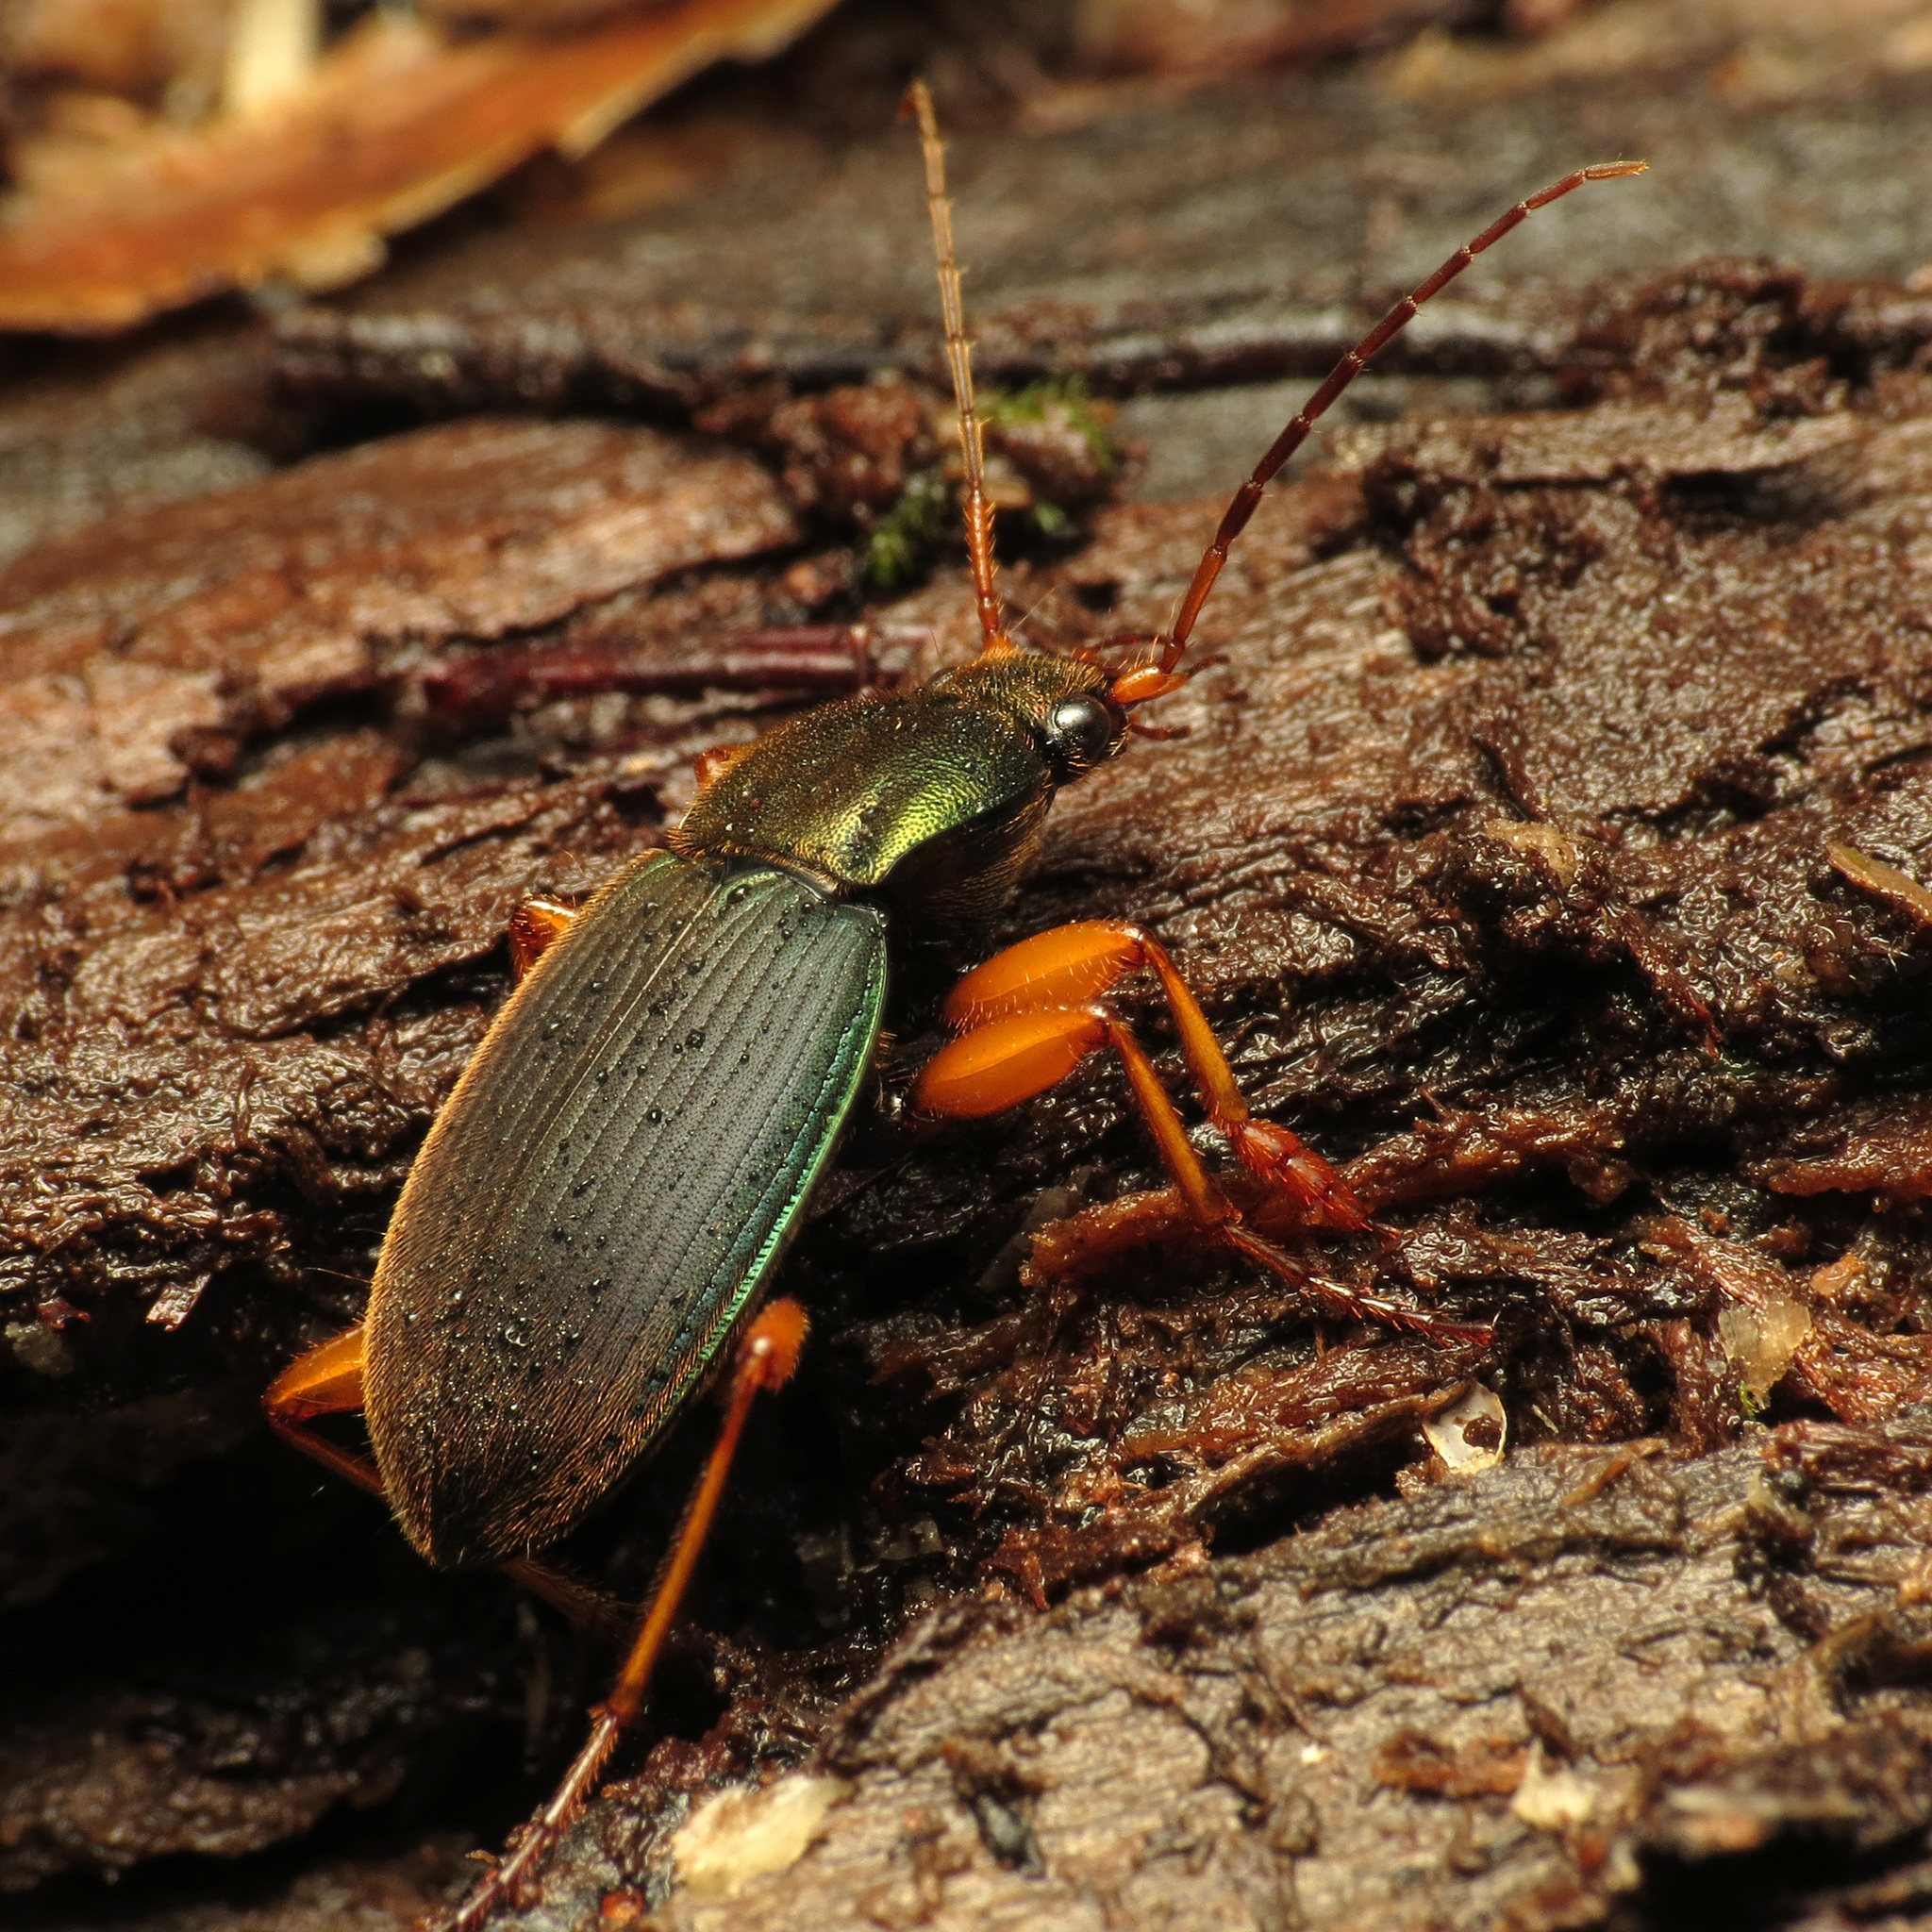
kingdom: Animalia
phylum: Arthropoda
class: Insecta
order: Coleoptera
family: Carabidae
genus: Chlaenius
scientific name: Chlaenius aestivus
